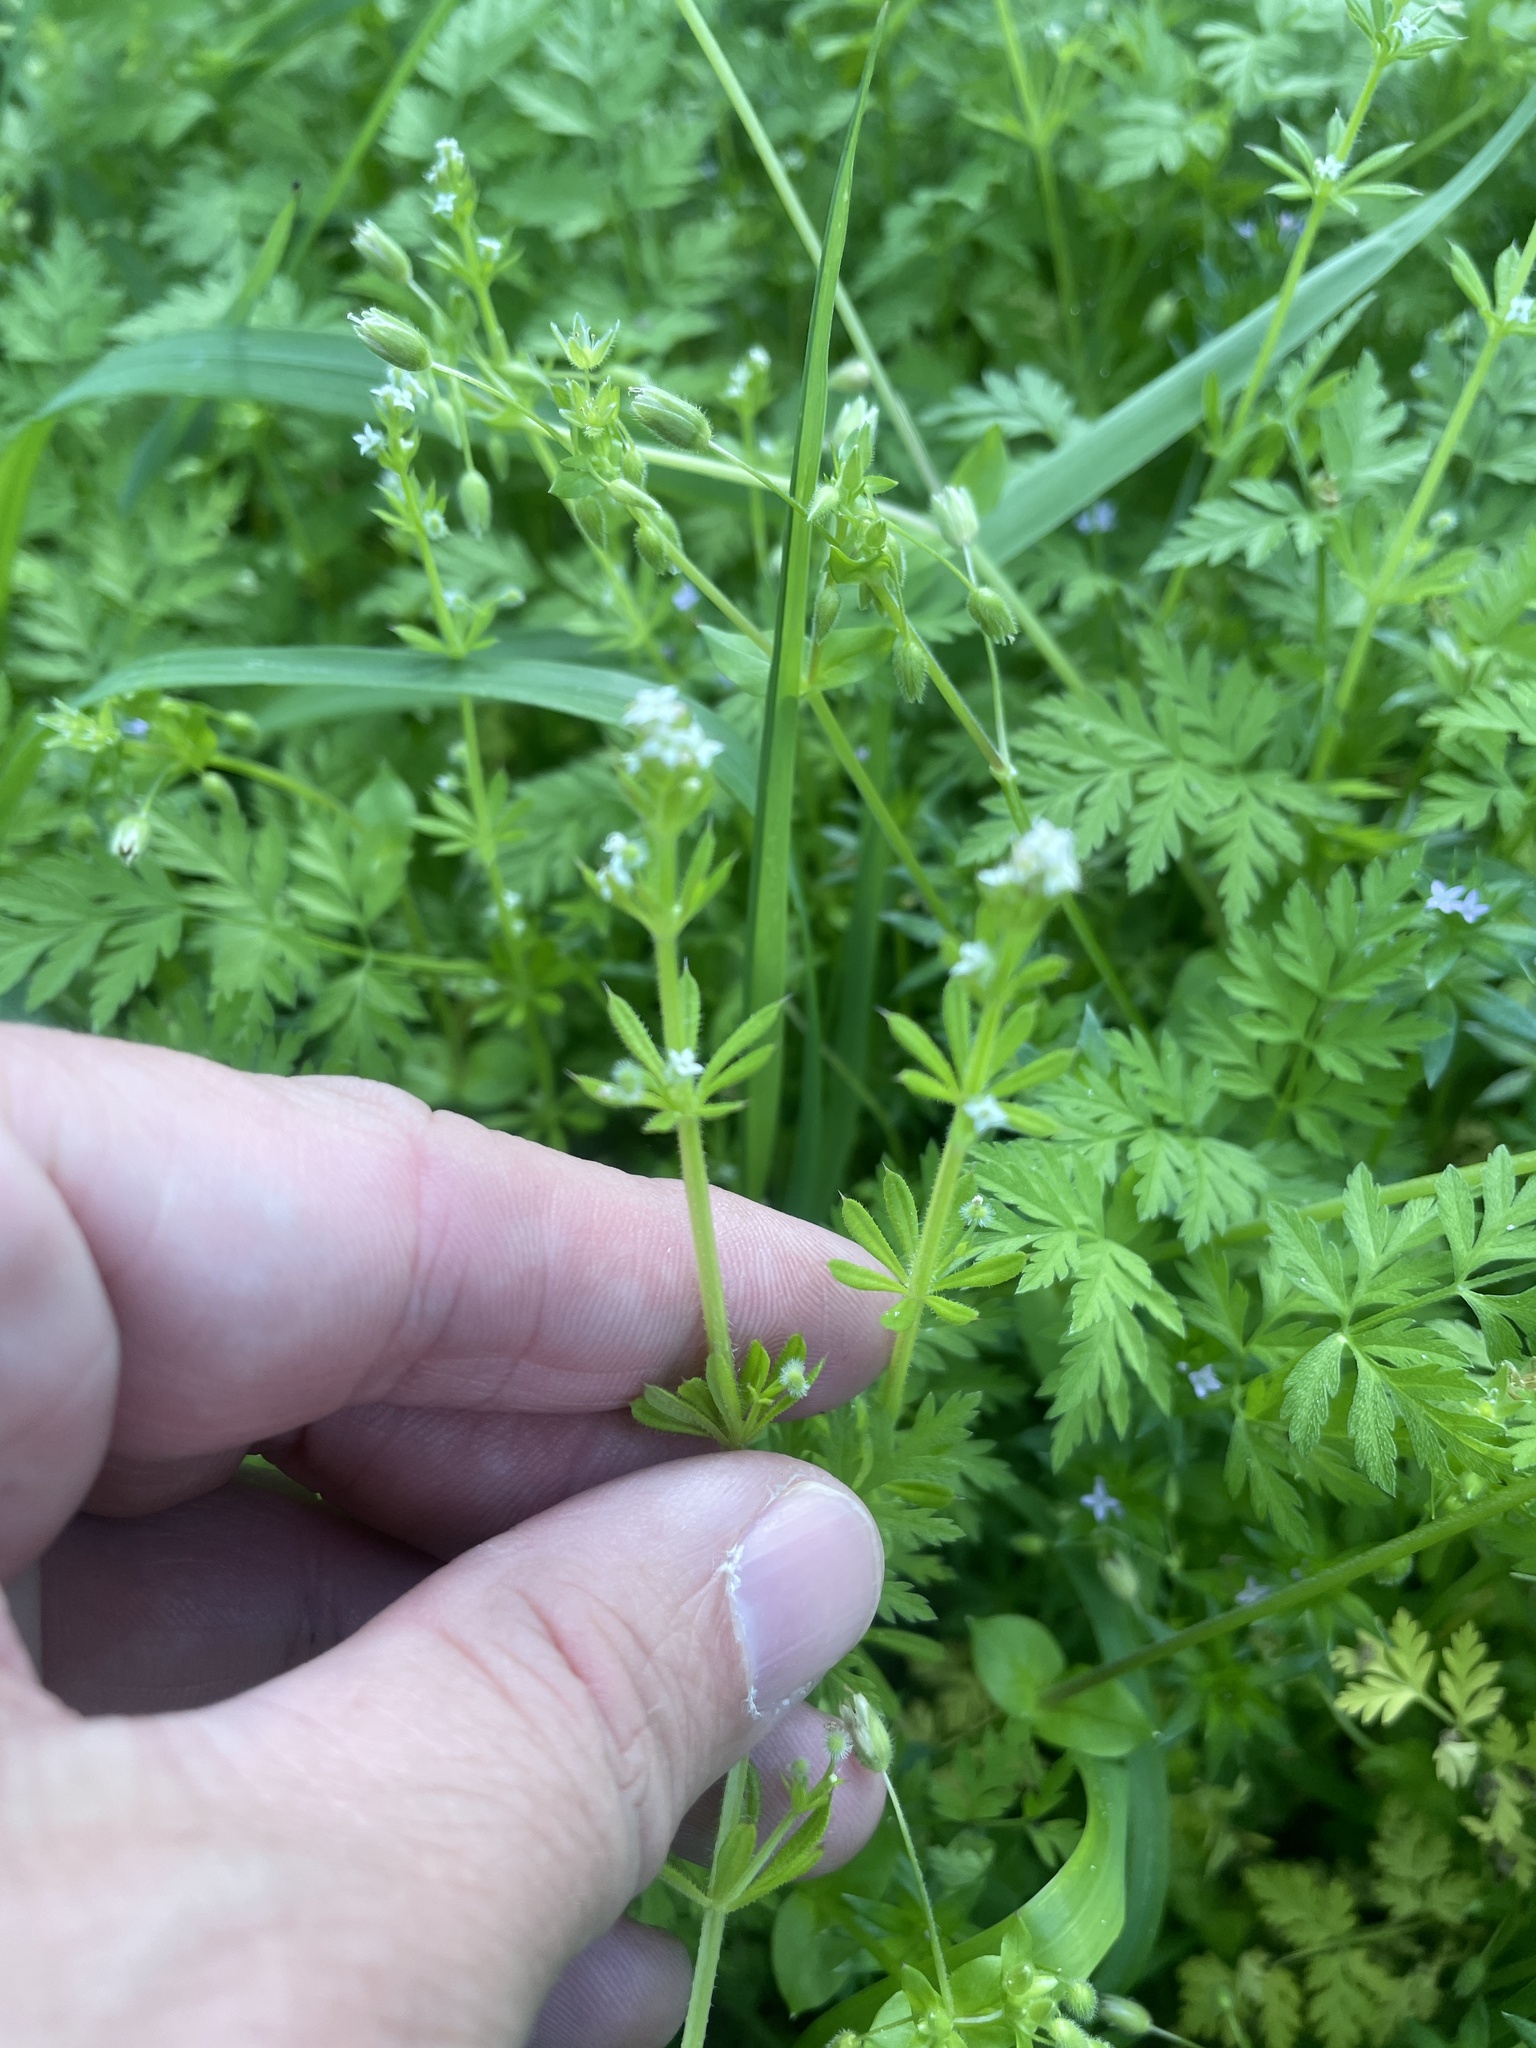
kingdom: Plantae
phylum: Tracheophyta
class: Magnoliopsida
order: Gentianales
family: Rubiaceae
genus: Galium
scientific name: Galium aparine
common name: Cleavers
